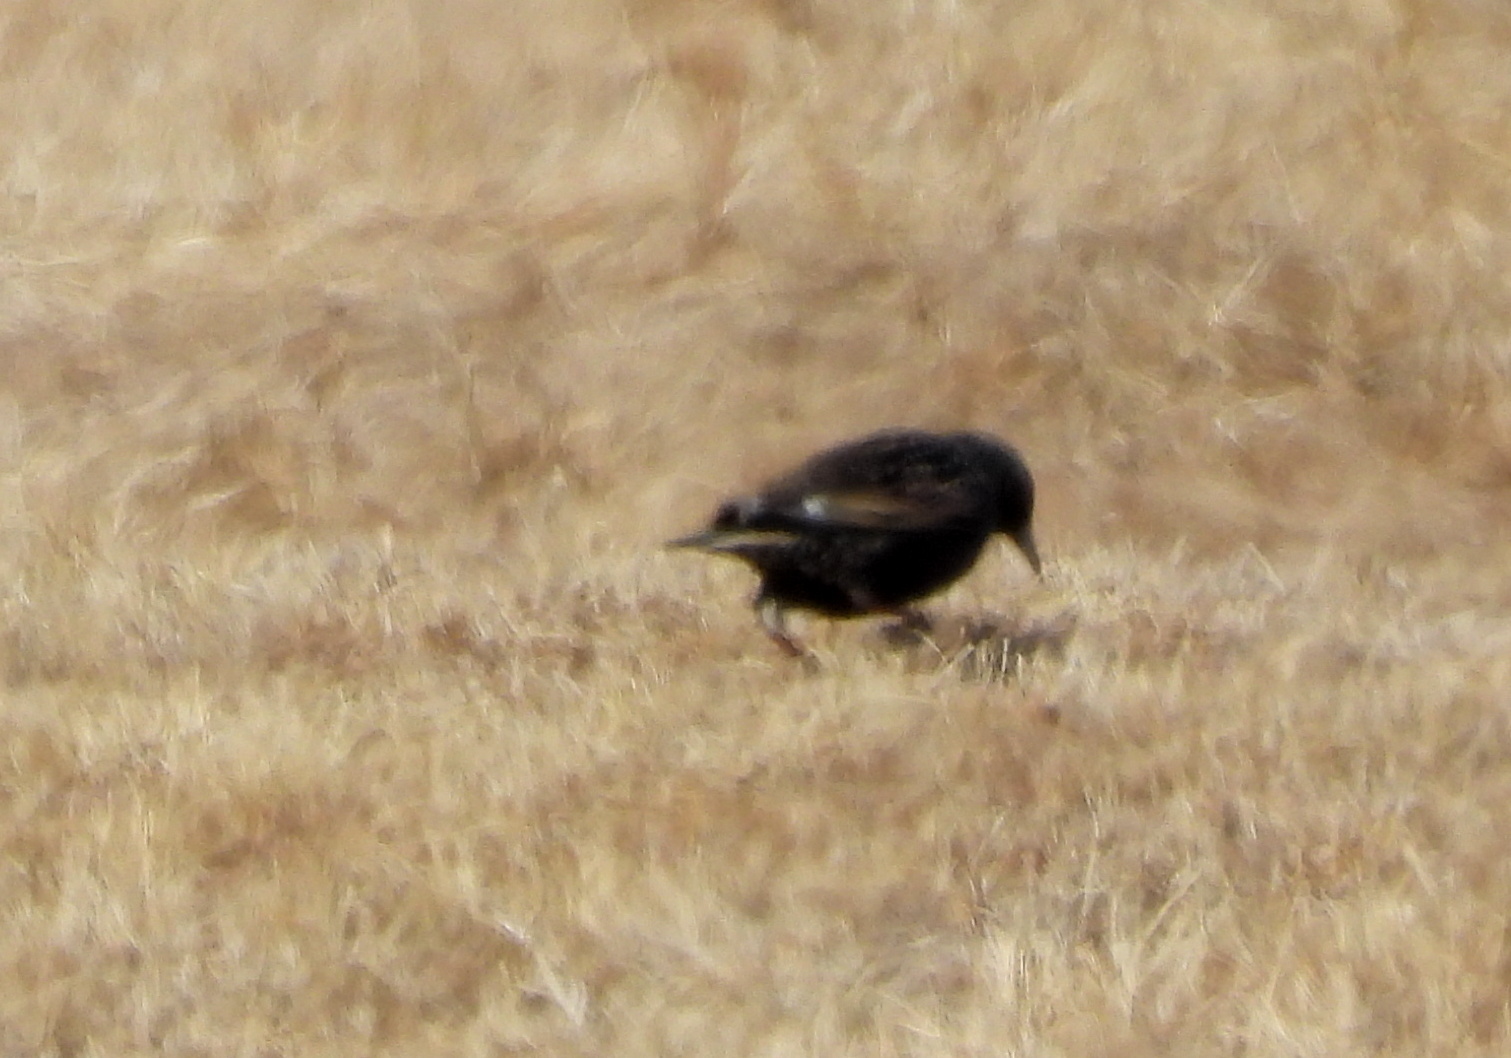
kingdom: Animalia
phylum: Chordata
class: Aves
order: Passeriformes
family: Sturnidae
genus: Sturnus
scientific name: Sturnus vulgaris
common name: Common starling
